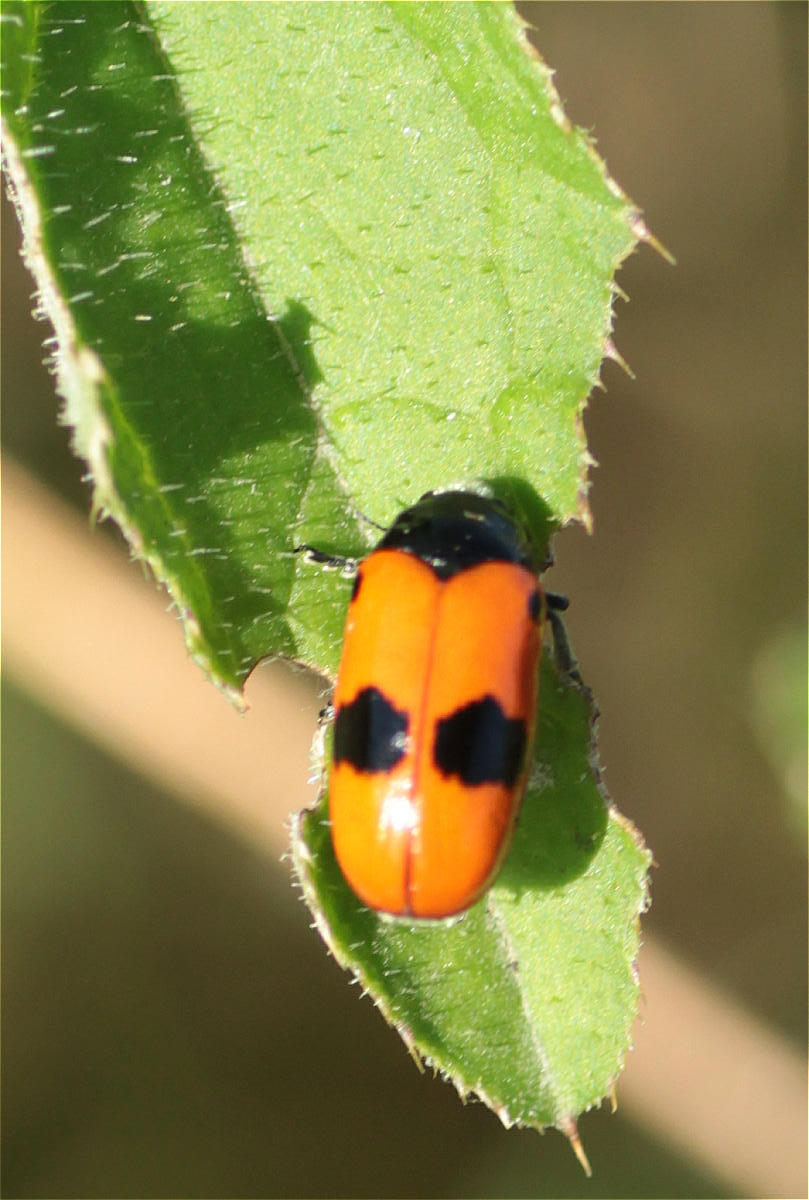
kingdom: Animalia
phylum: Arthropoda
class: Insecta
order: Coleoptera
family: Chrysomelidae
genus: Clytra
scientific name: Clytra laeviuscula
